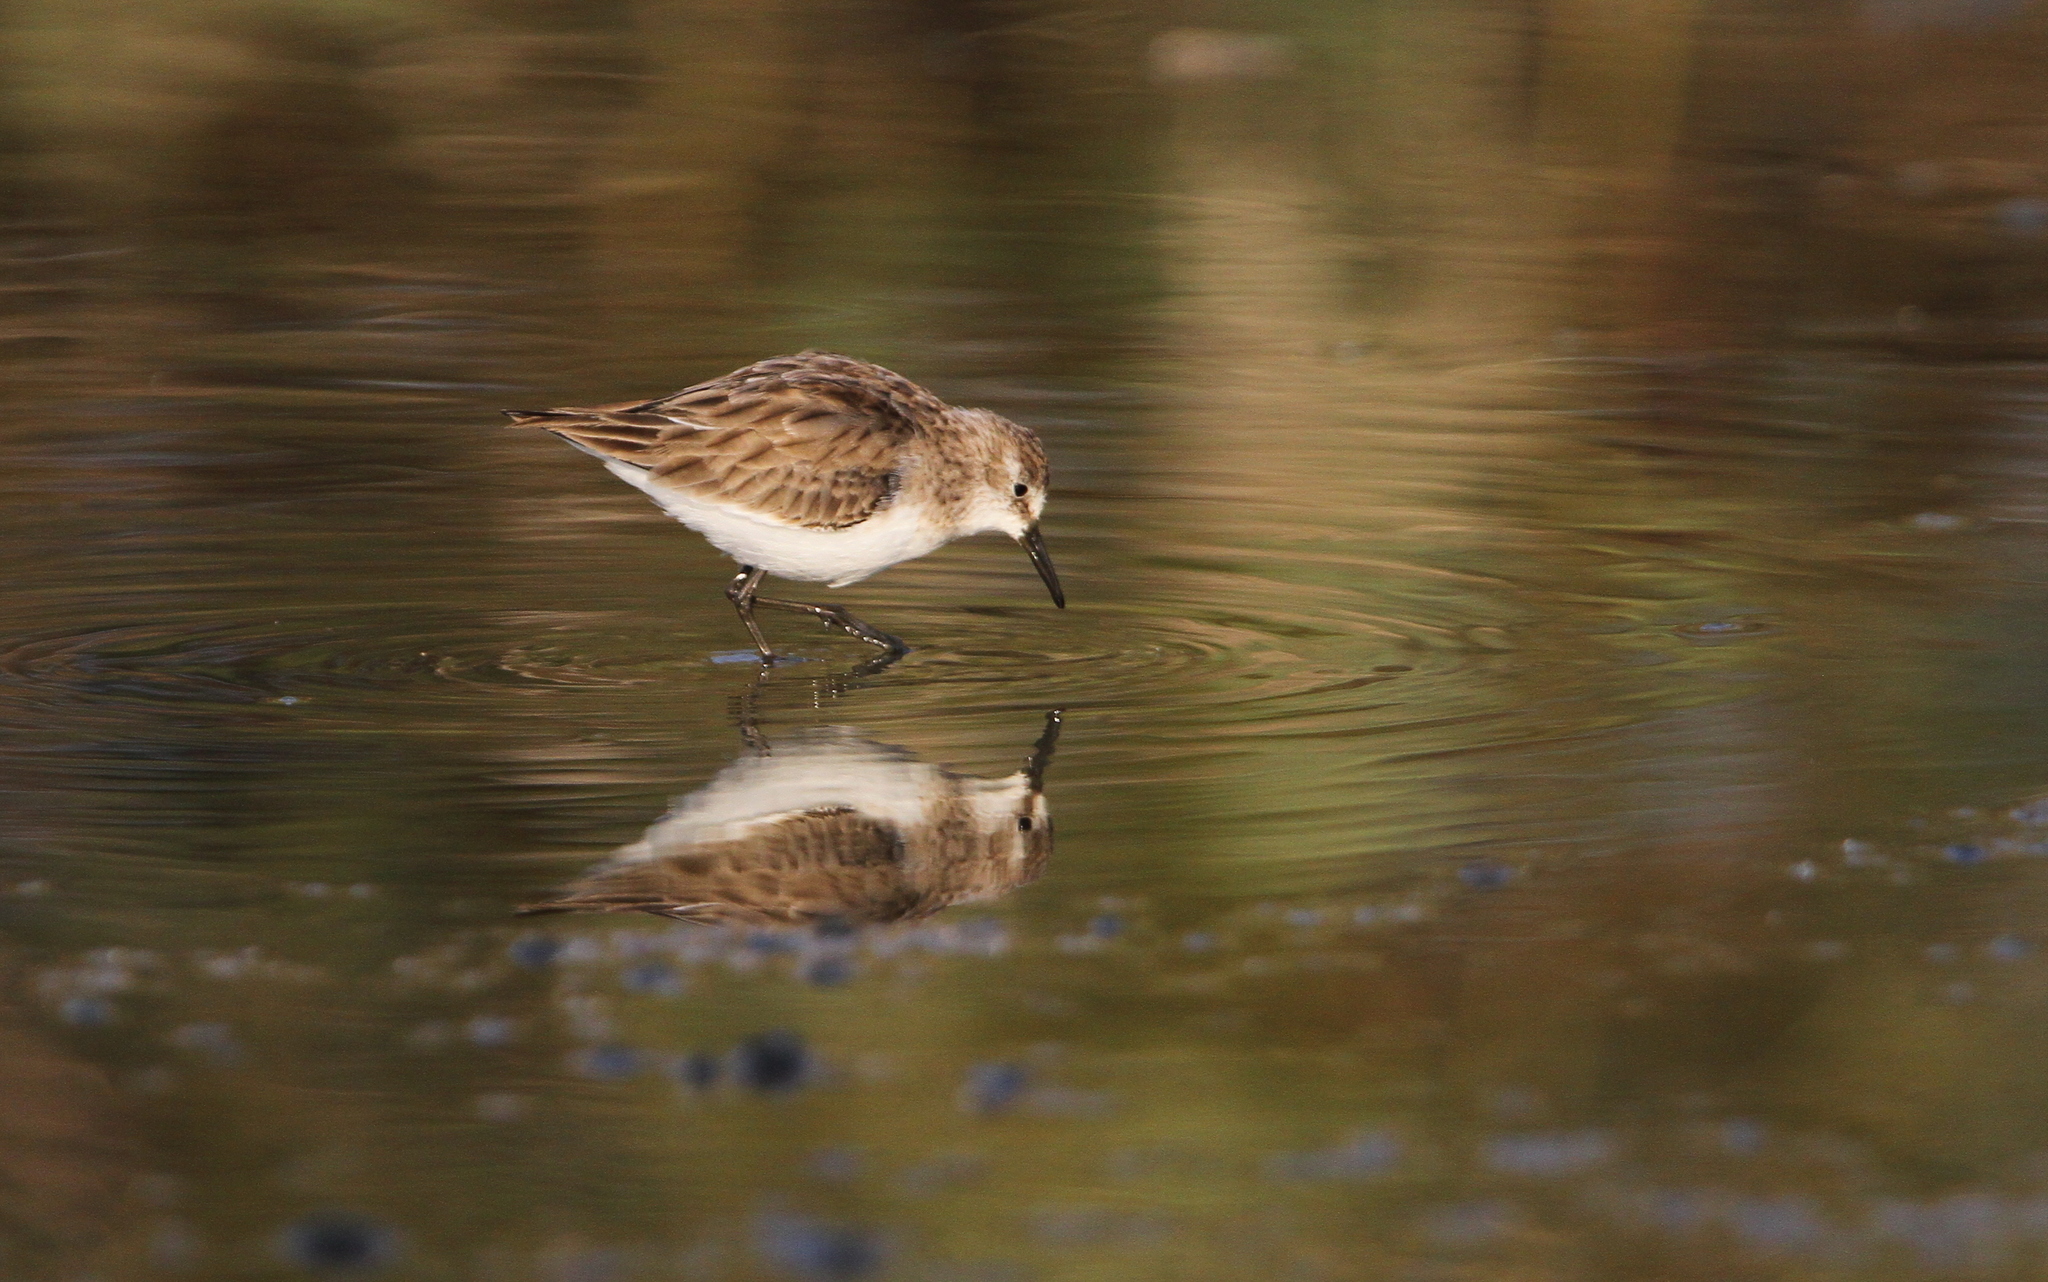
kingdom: Animalia
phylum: Chordata
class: Aves
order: Charadriiformes
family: Scolopacidae
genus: Calidris
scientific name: Calidris minuta
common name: Little stint
